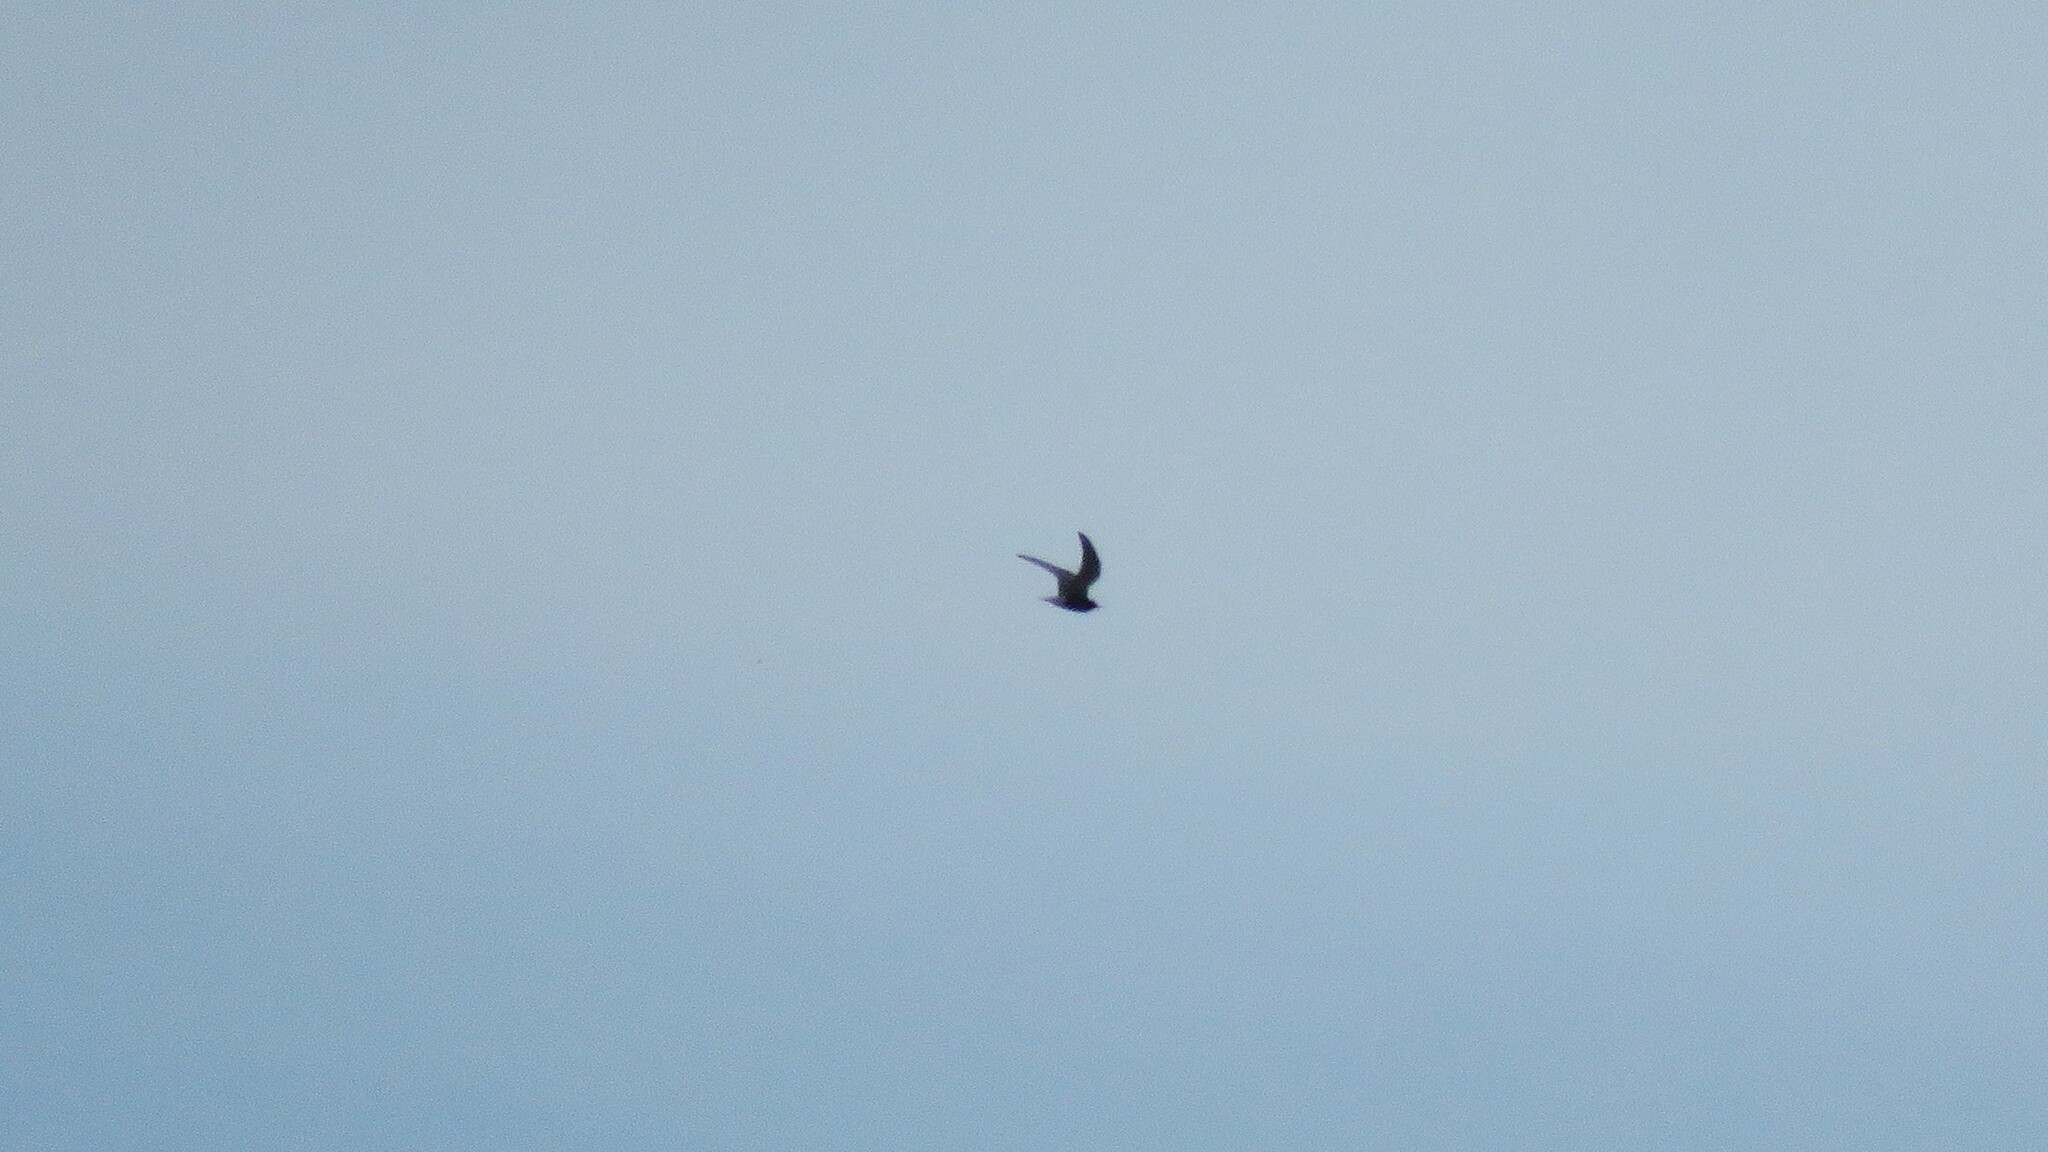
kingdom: Animalia
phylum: Chordata
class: Aves
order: Charadriiformes
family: Laridae
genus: Chlidonias
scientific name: Chlidonias niger
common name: Black tern
